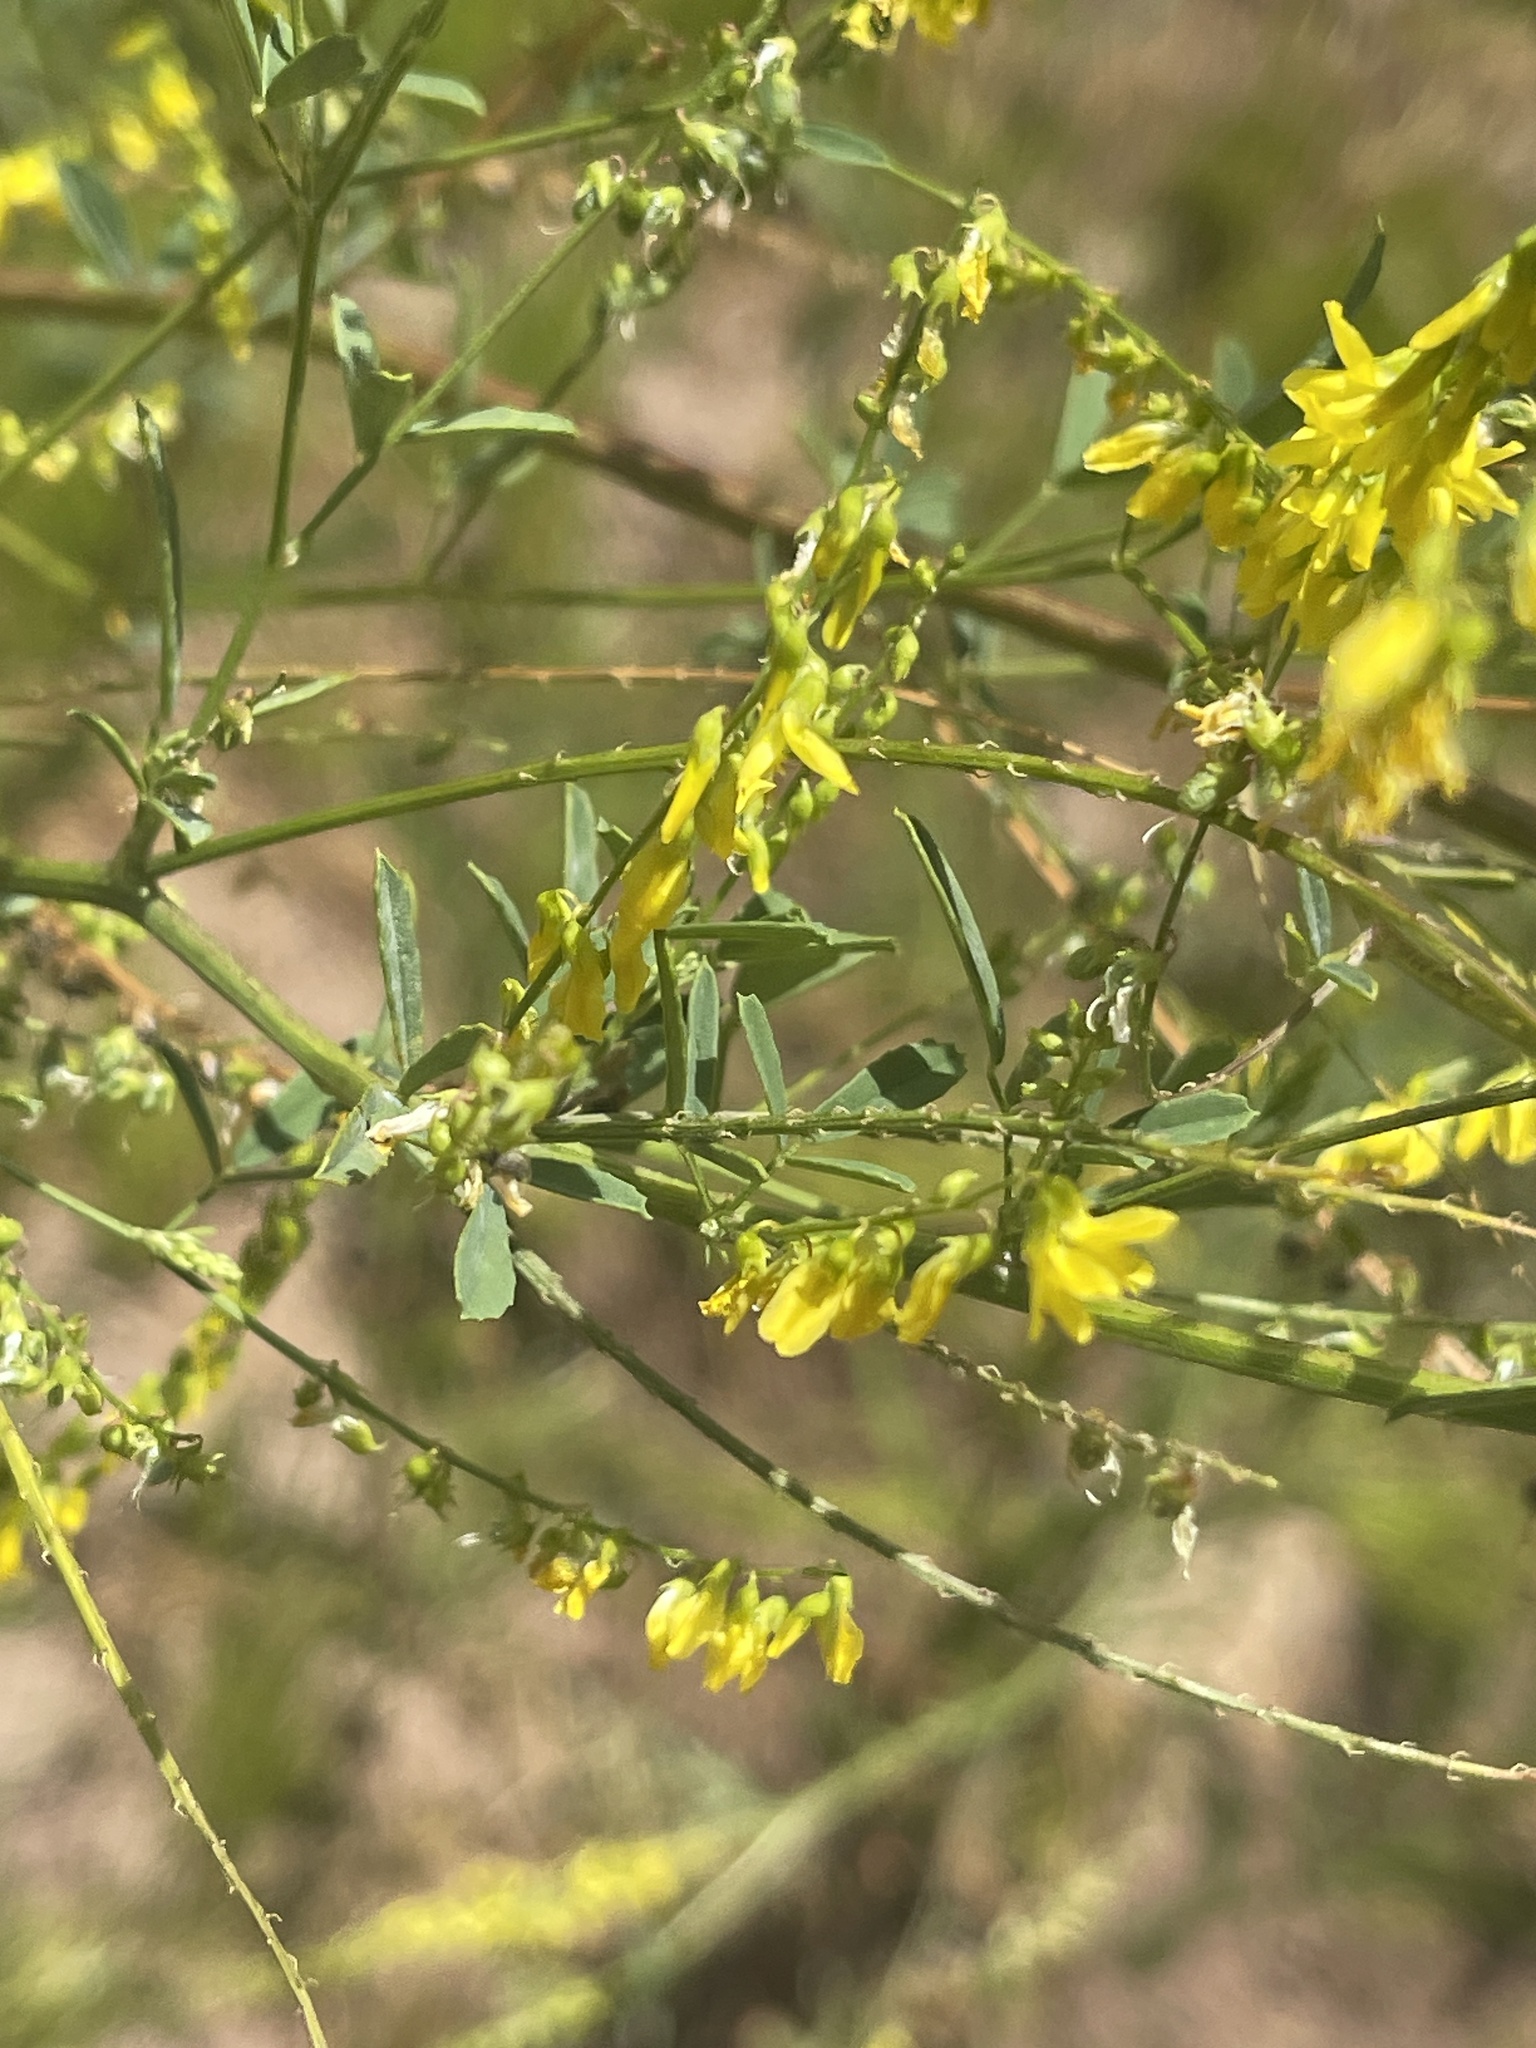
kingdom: Plantae
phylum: Tracheophyta
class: Magnoliopsida
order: Fabales
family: Fabaceae
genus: Melilotus
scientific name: Melilotus officinalis
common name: Sweetclover
